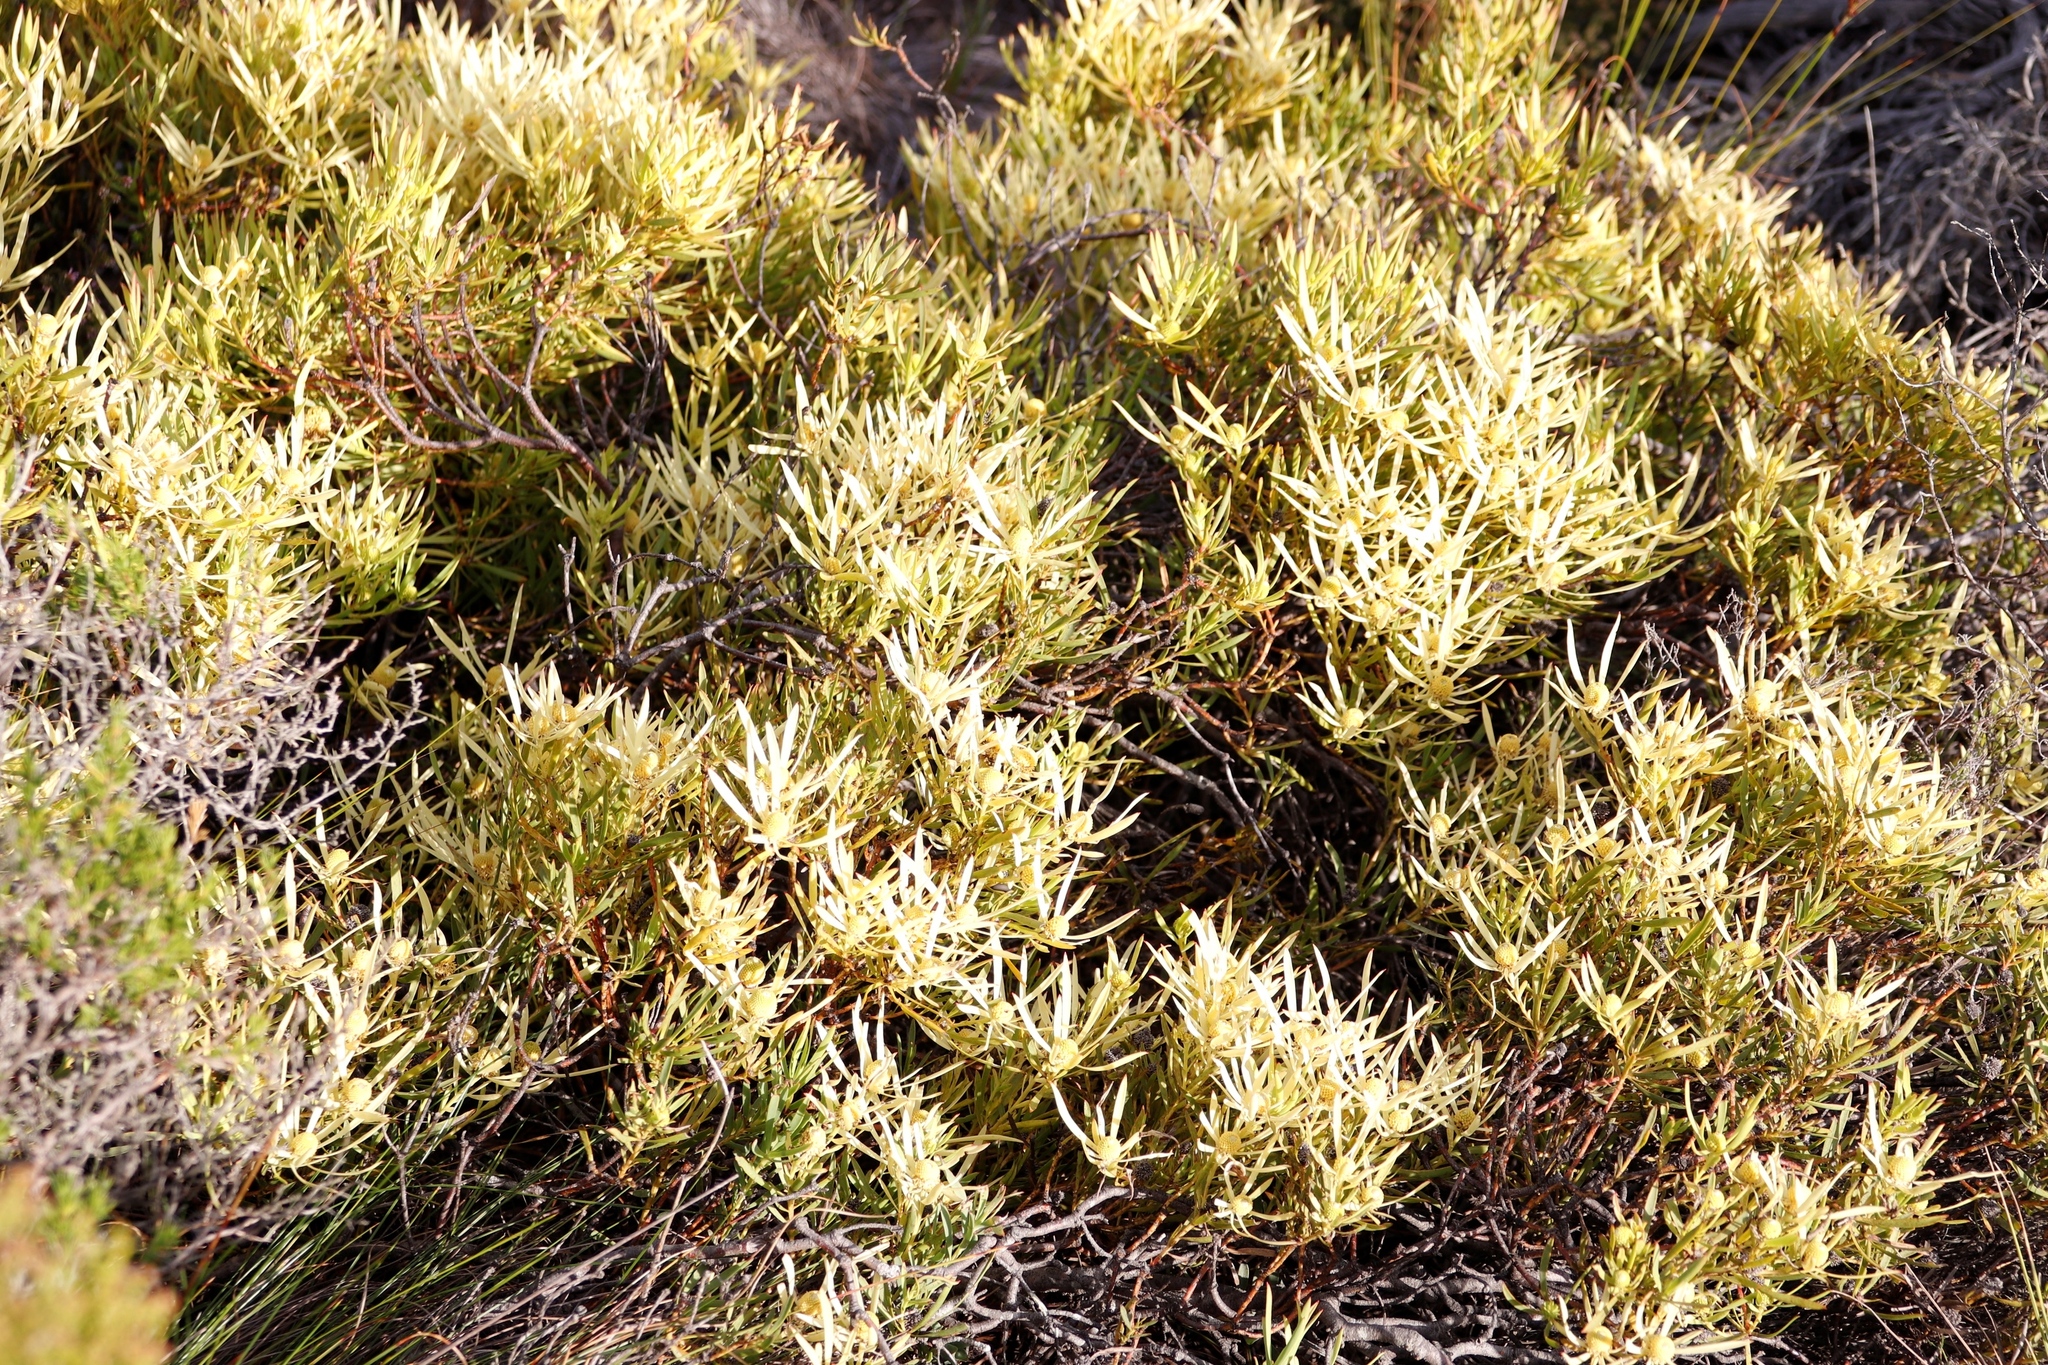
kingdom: Plantae
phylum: Tracheophyta
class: Magnoliopsida
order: Proteales
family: Proteaceae
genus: Leucadendron
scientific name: Leucadendron salignum
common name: Common sunshine conebush
